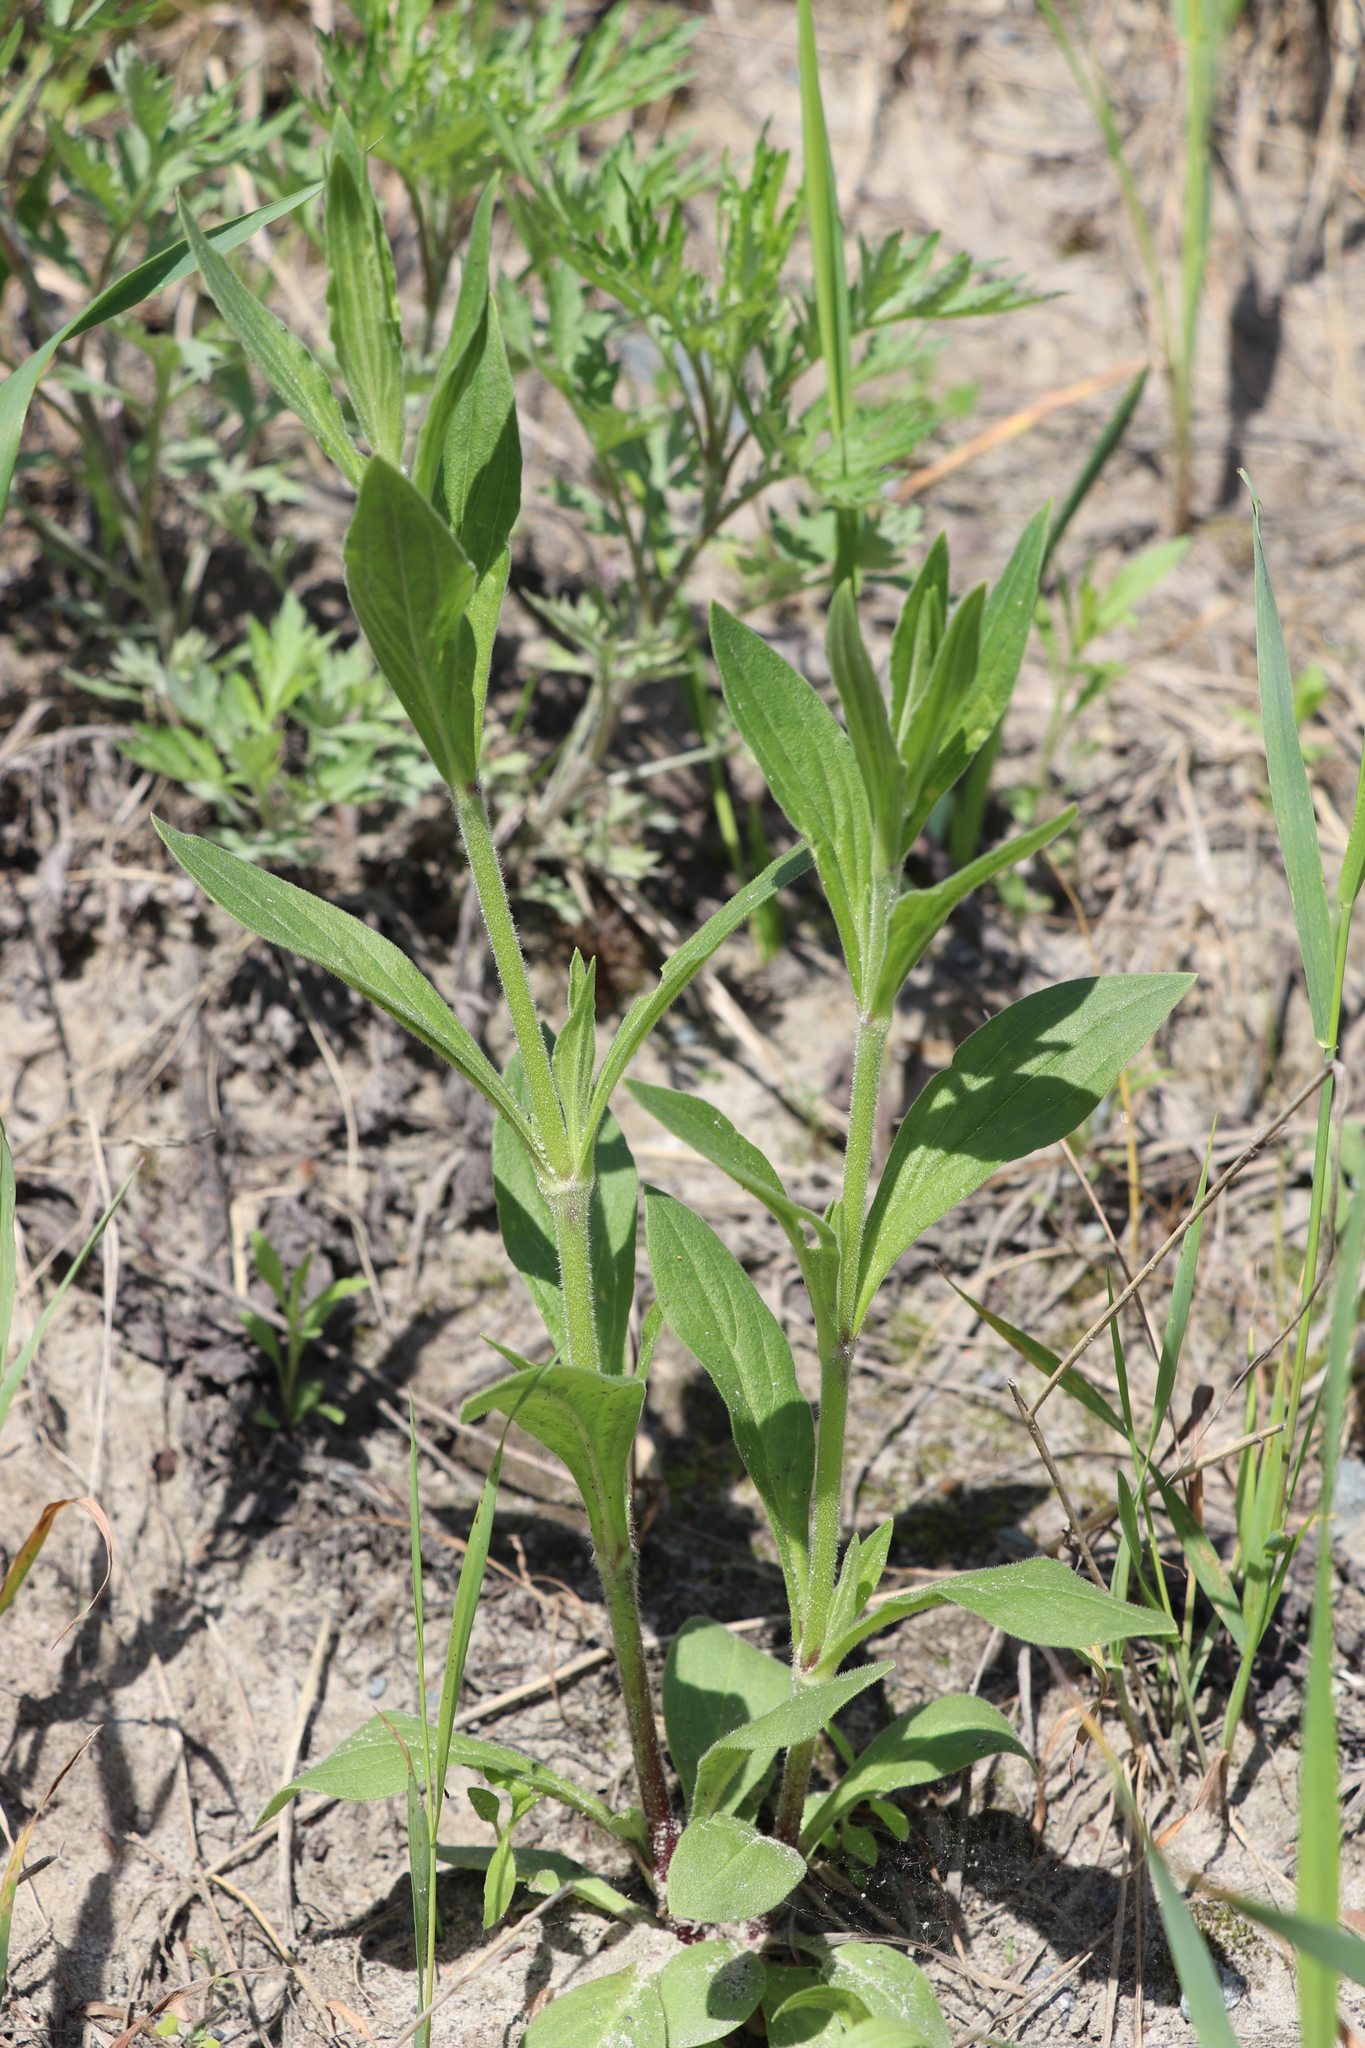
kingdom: Plantae
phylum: Tracheophyta
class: Magnoliopsida
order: Caryophyllales
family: Caryophyllaceae
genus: Silene
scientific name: Silene latifolia
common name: White campion
